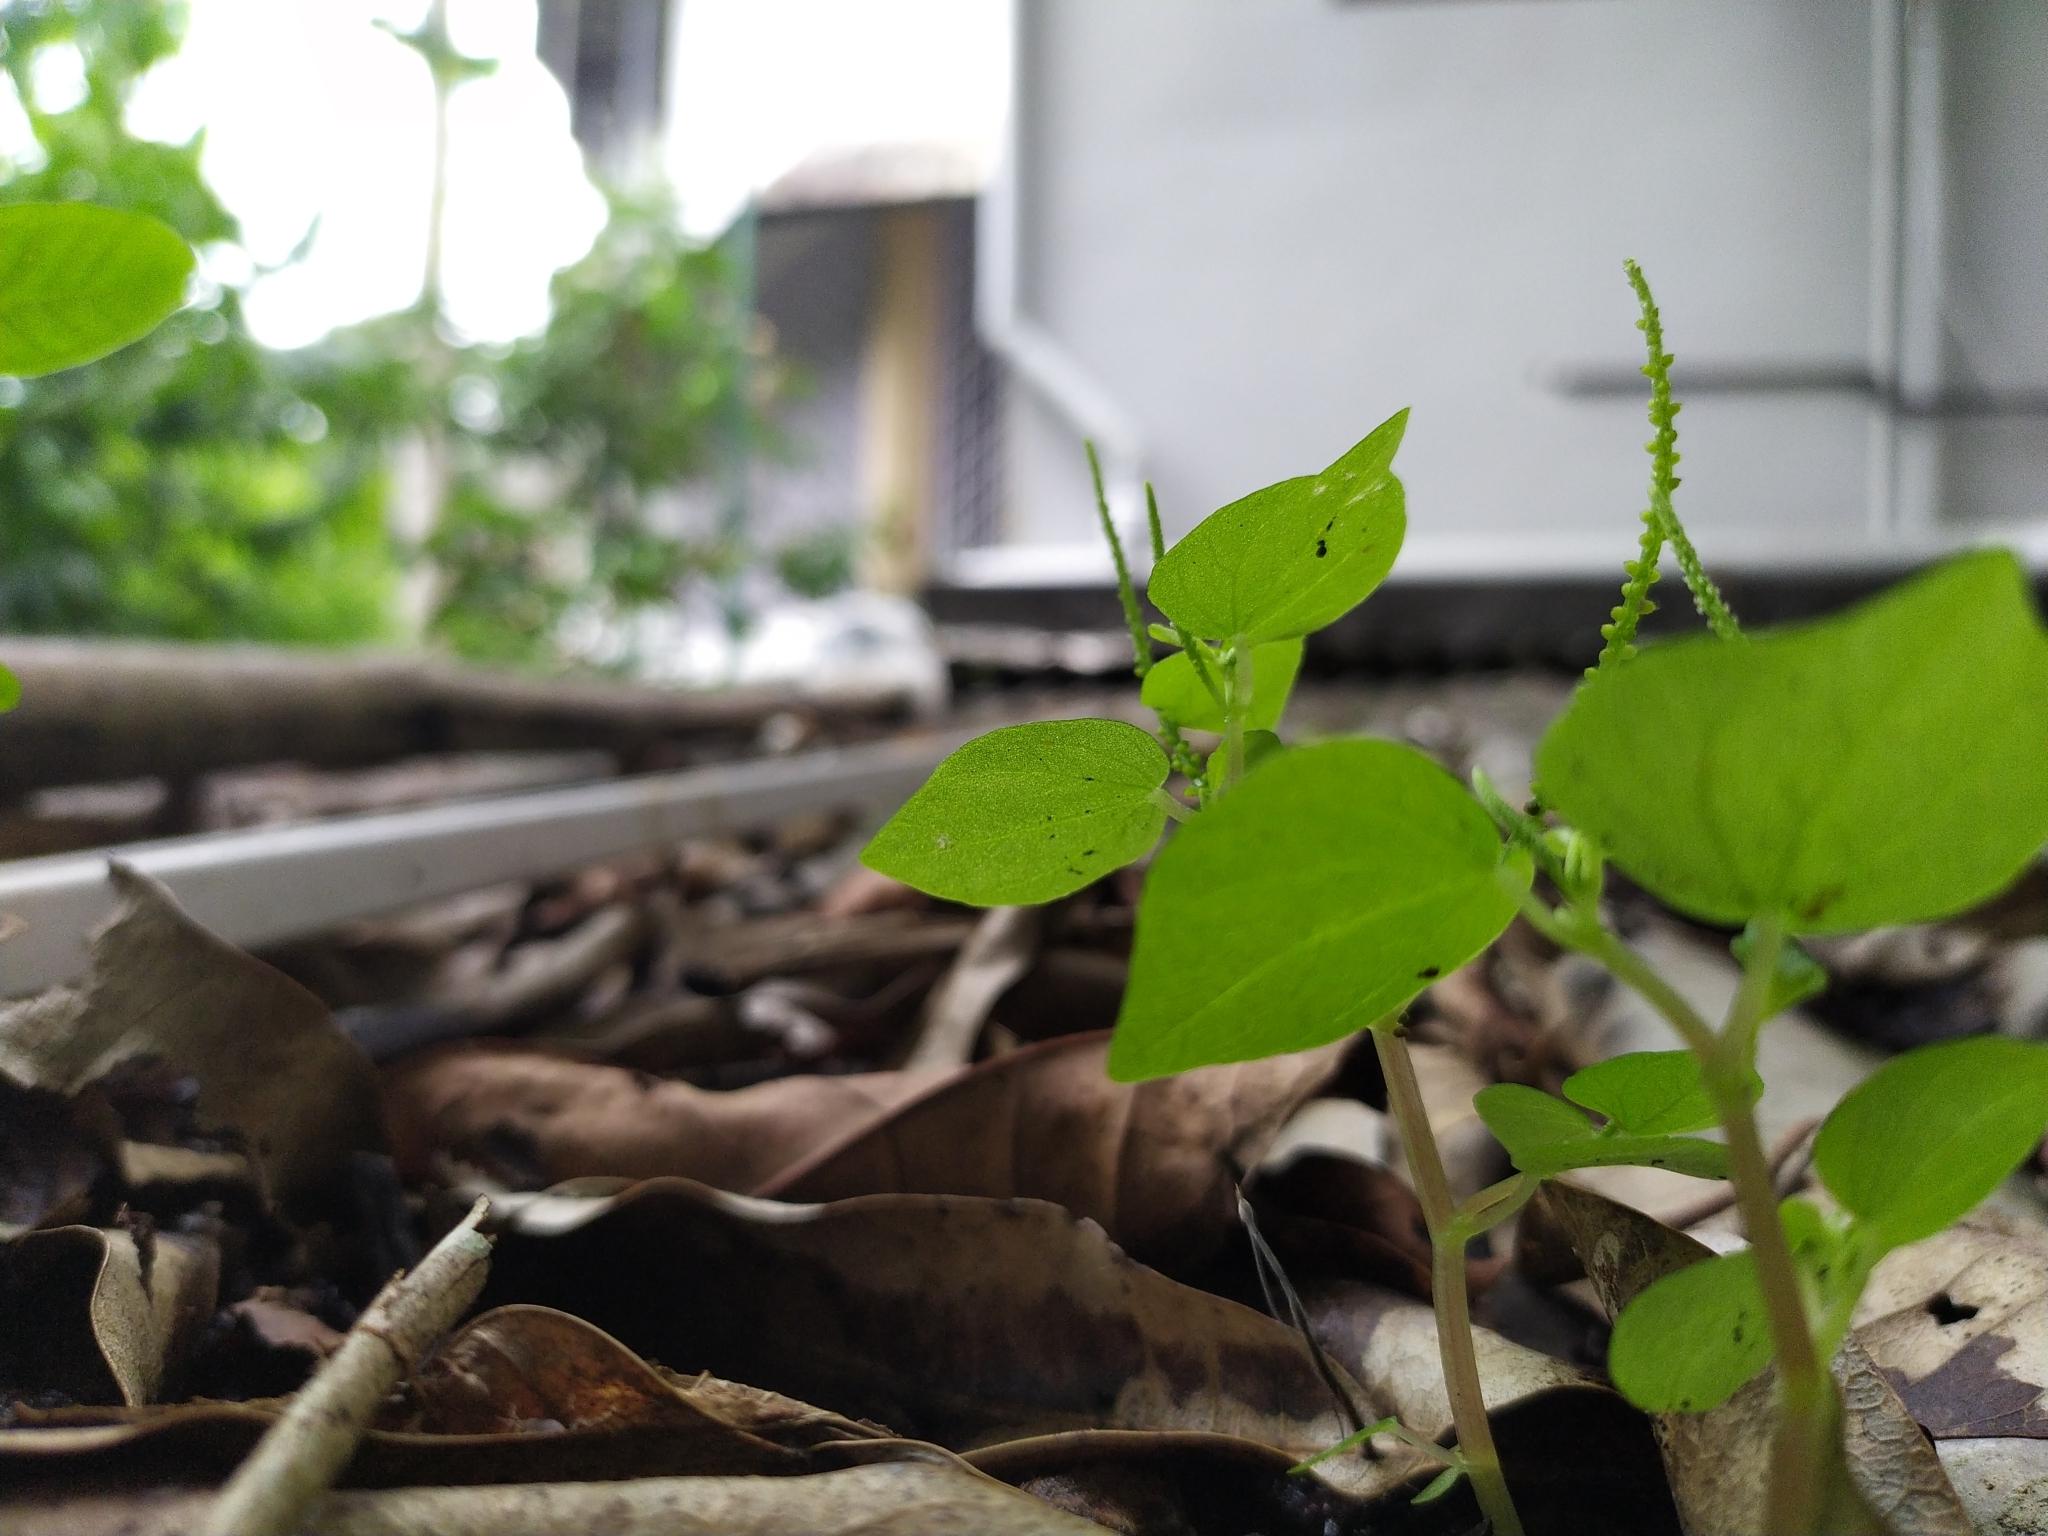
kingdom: Plantae
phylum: Tracheophyta
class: Magnoliopsida
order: Piperales
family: Piperaceae
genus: Peperomia
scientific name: Peperomia pellucida
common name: Man to man
